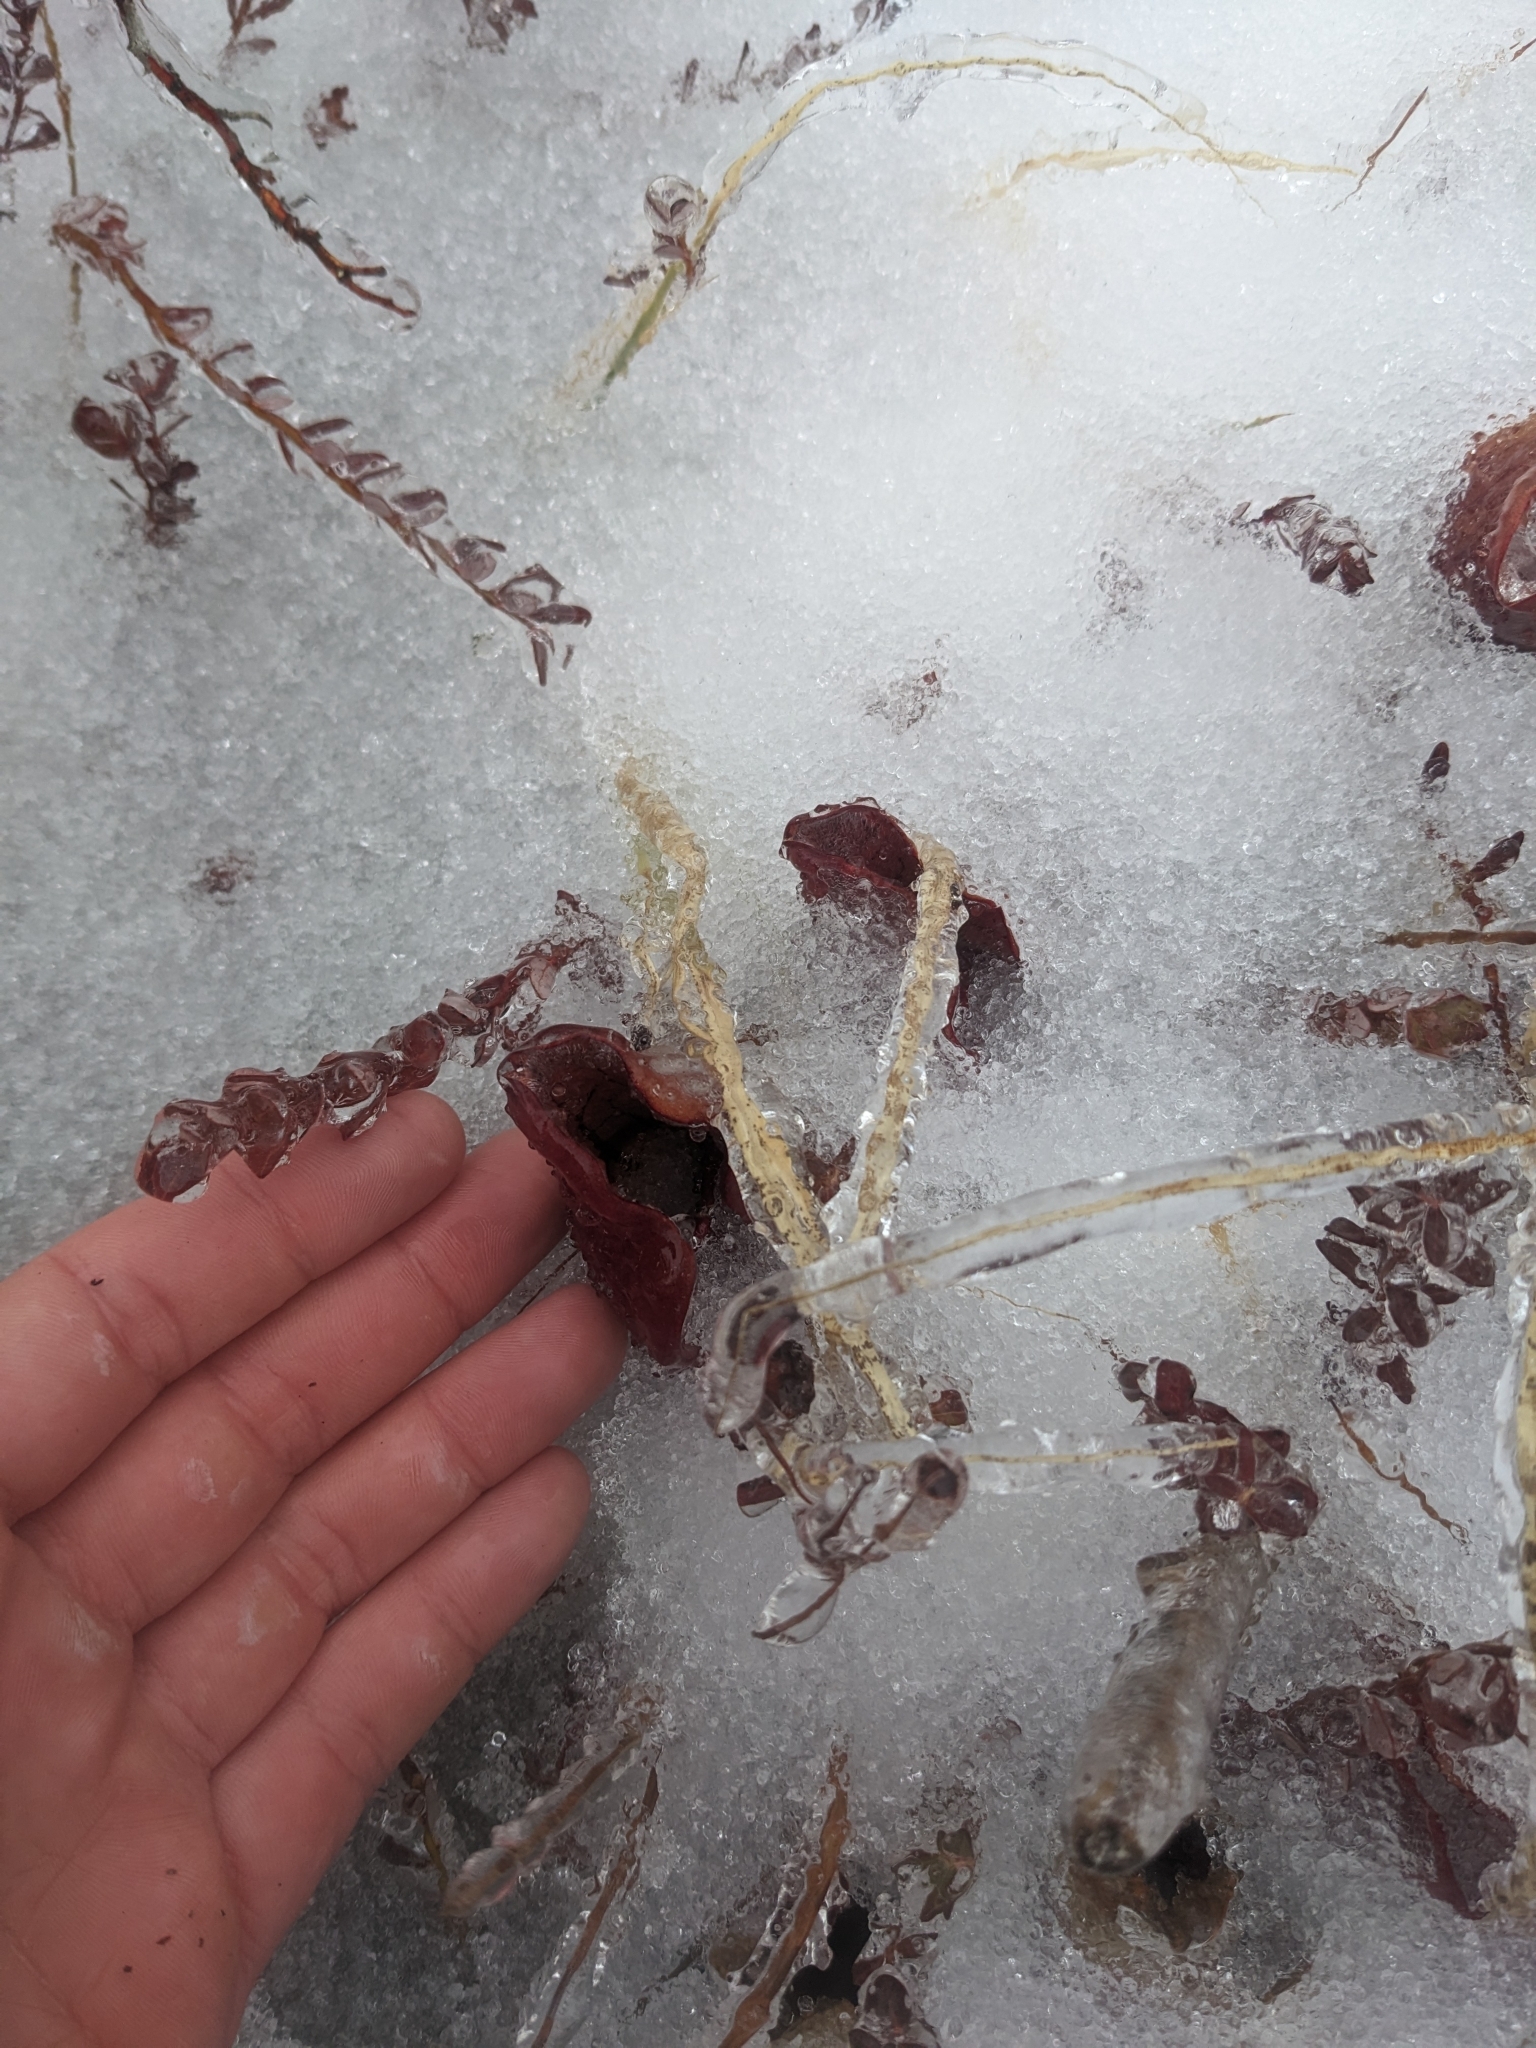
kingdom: Plantae
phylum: Tracheophyta
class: Magnoliopsida
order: Ericales
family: Sarraceniaceae
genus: Sarracenia
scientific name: Sarracenia purpurea
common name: Pitcherplant
